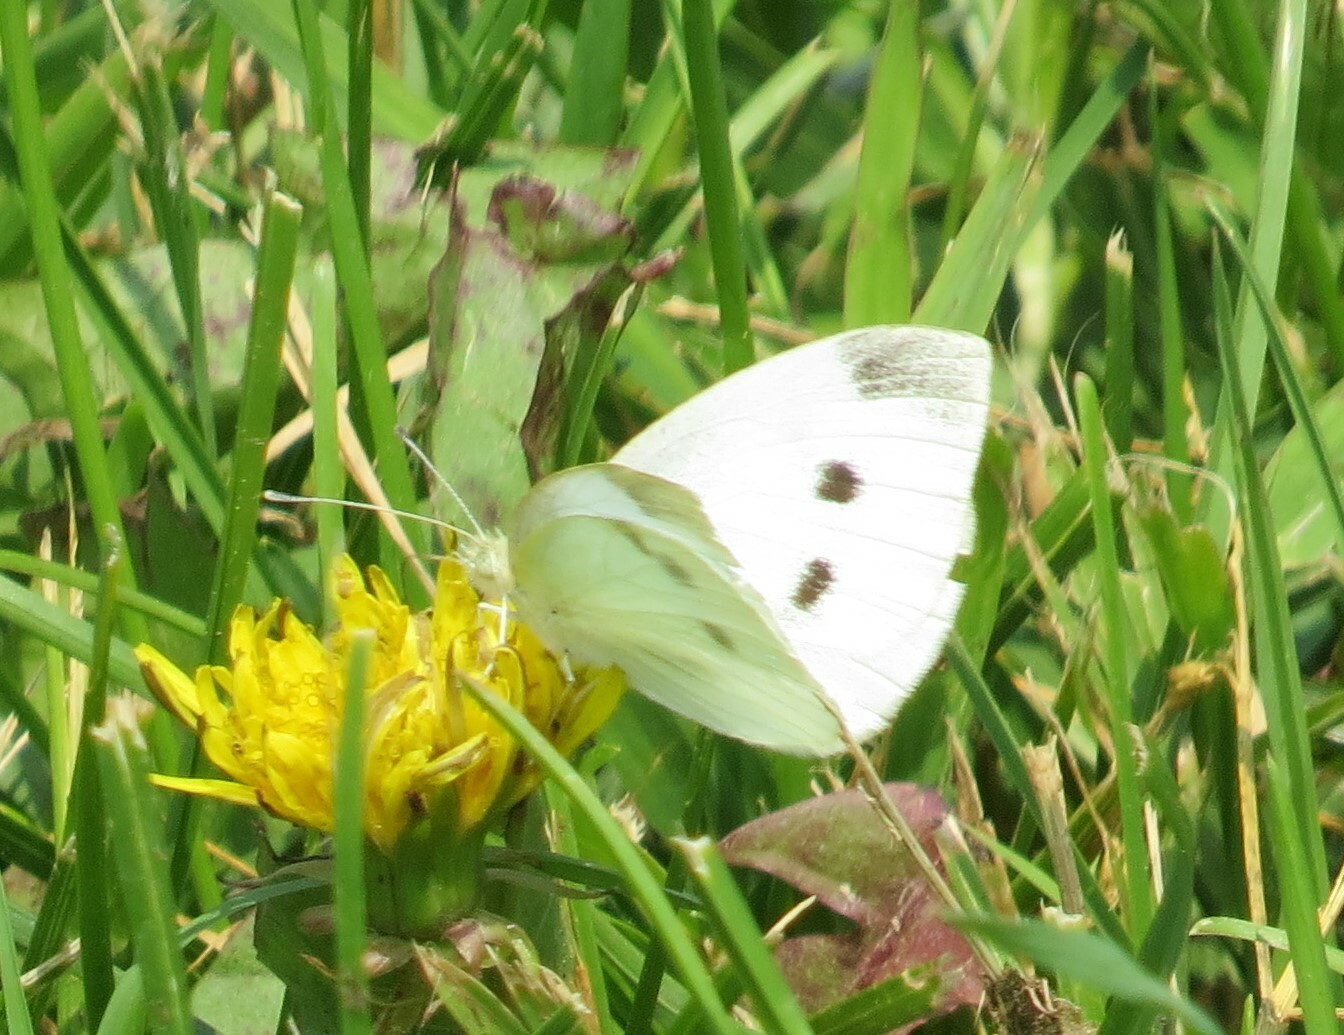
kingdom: Animalia
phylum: Arthropoda
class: Insecta
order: Lepidoptera
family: Pieridae
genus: Pieris
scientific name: Pieris rapae
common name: Small white
